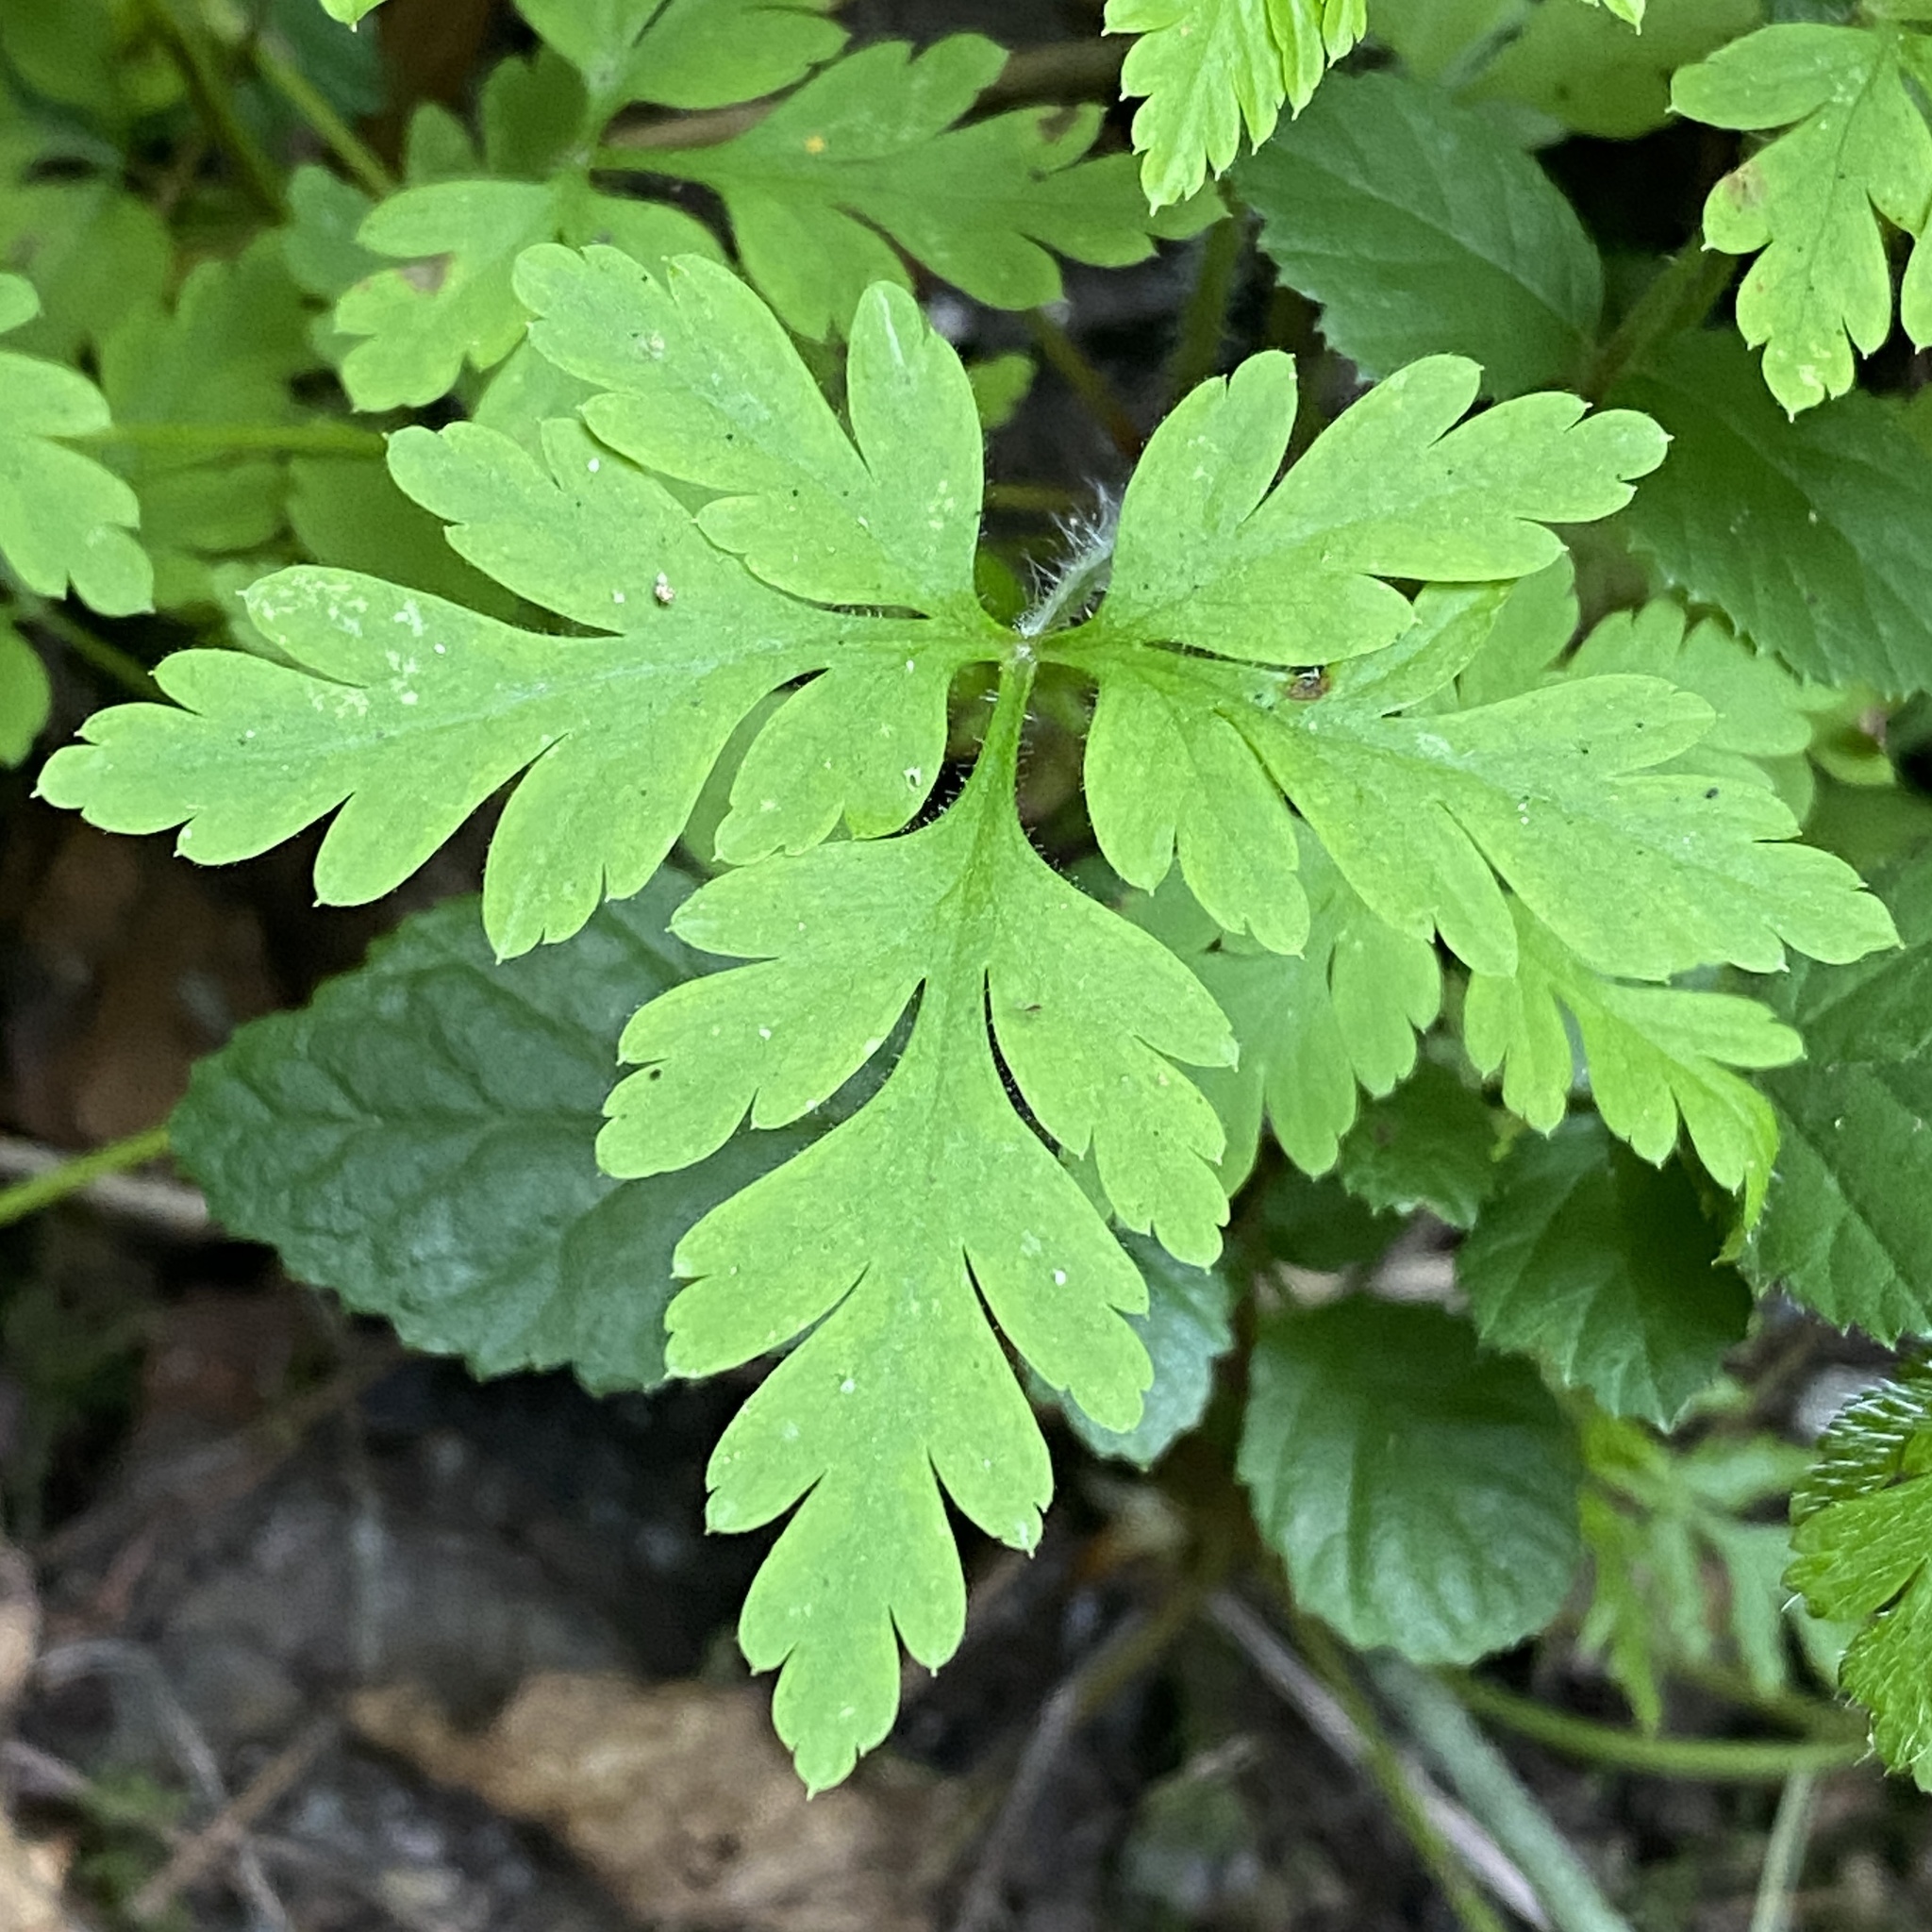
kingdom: Plantae
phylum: Tracheophyta
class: Magnoliopsida
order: Geraniales
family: Geraniaceae
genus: Geranium
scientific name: Geranium robertianum
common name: Herb-robert
